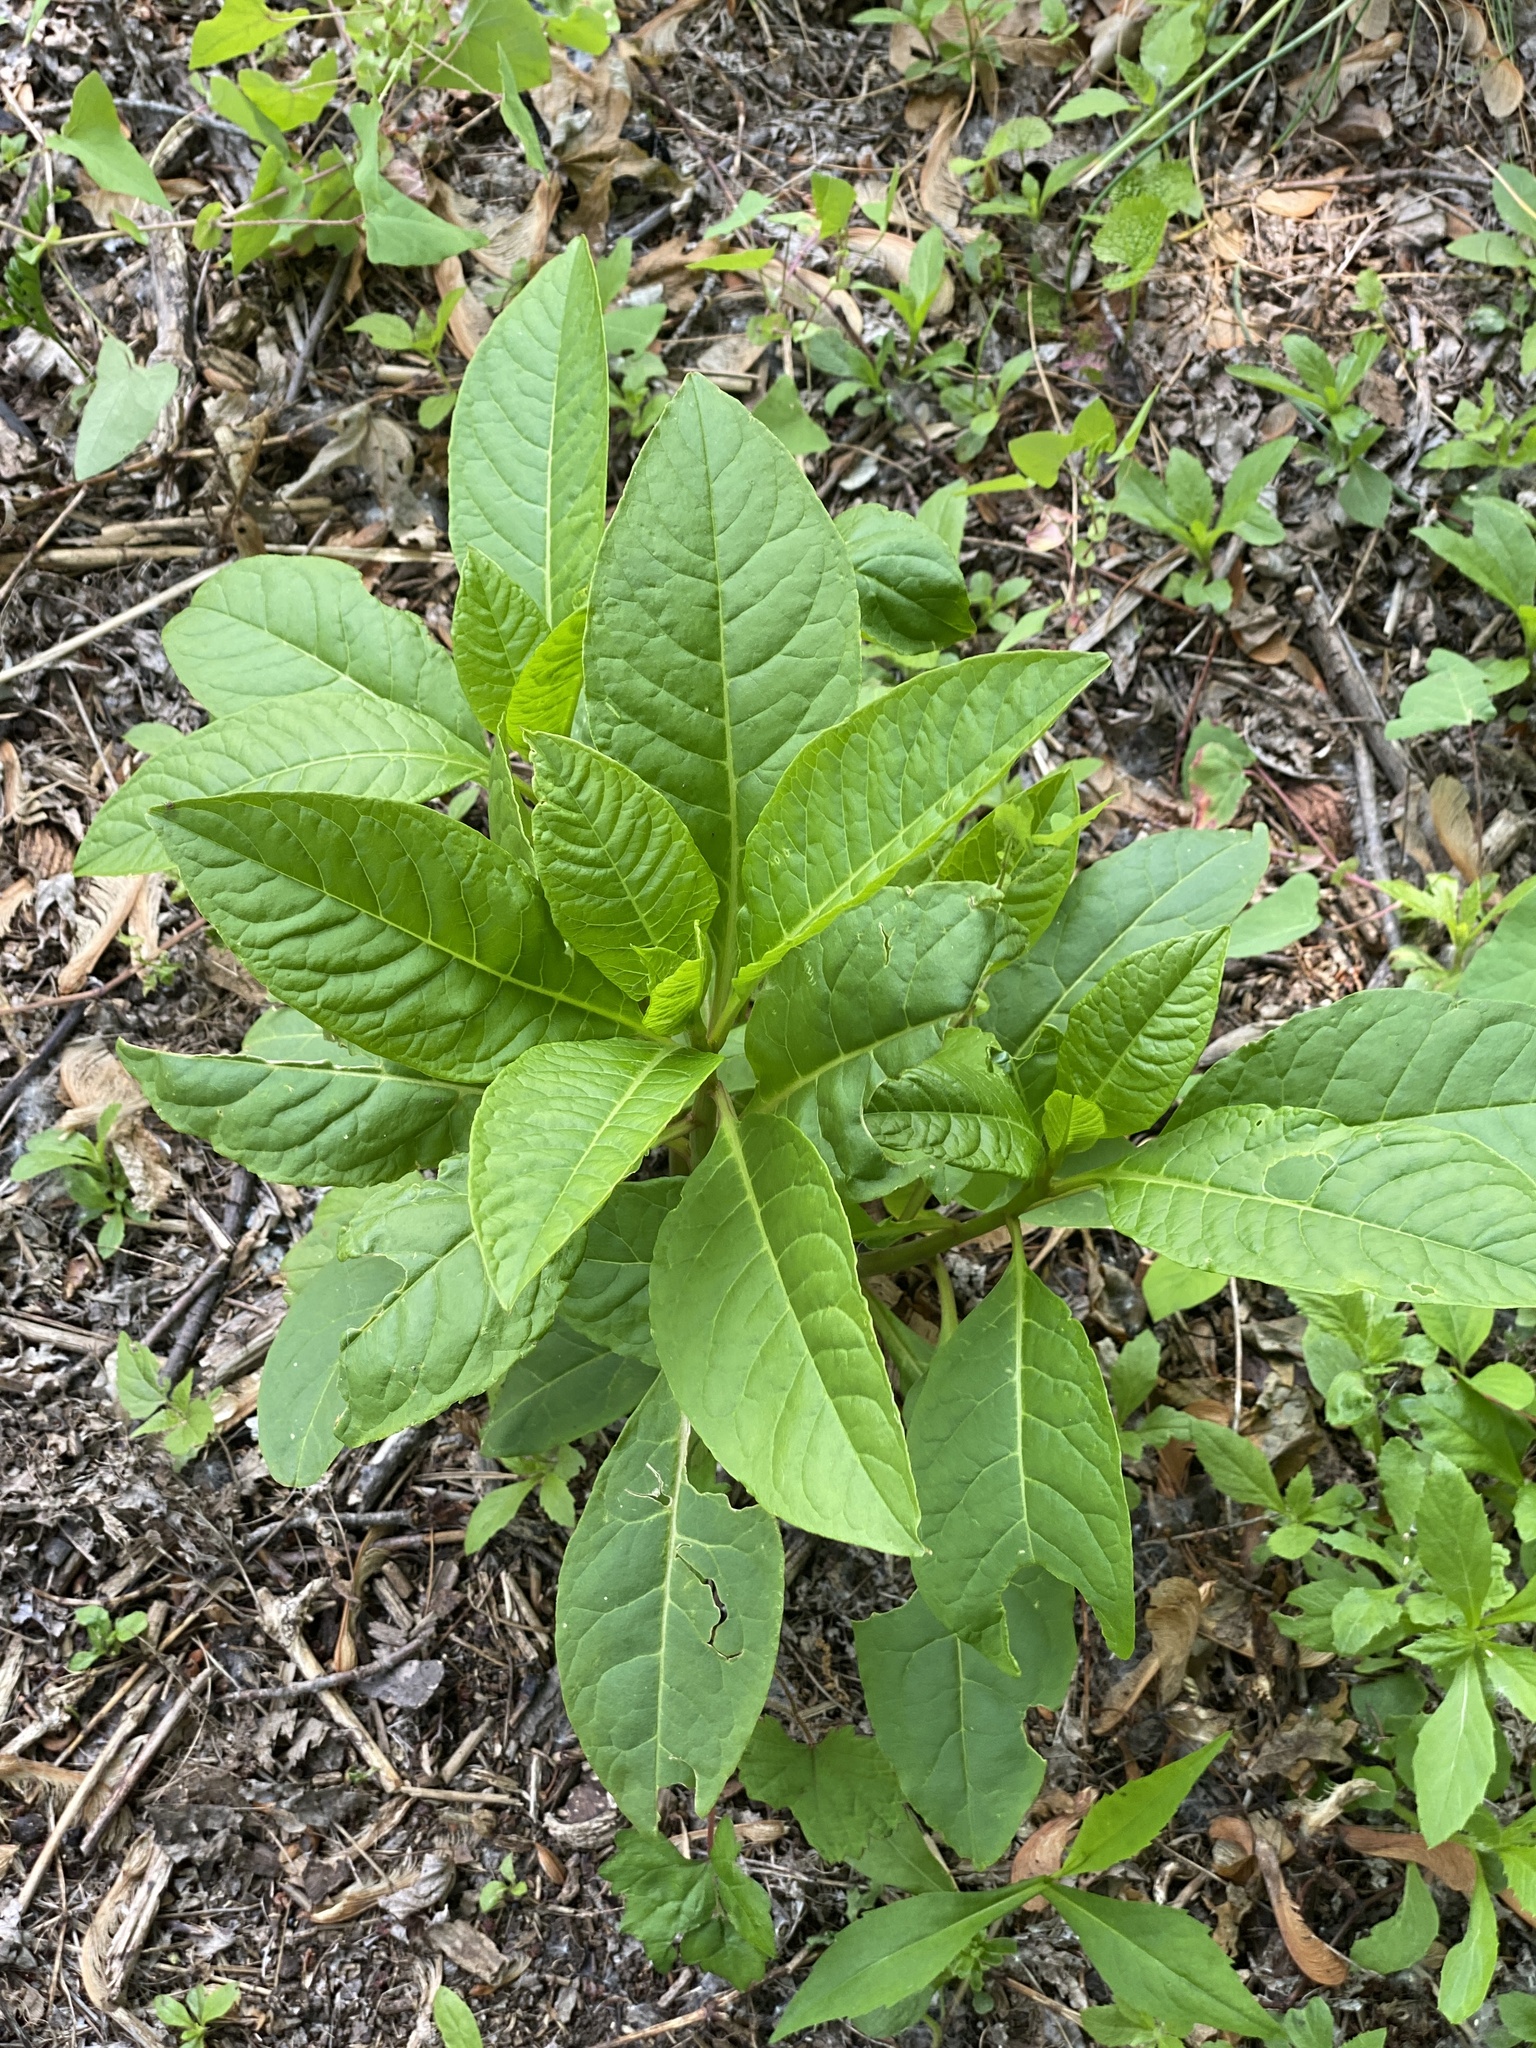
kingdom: Plantae
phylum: Tracheophyta
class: Magnoliopsida
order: Caryophyllales
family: Phytolaccaceae
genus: Phytolacca
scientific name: Phytolacca americana
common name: American pokeweed
